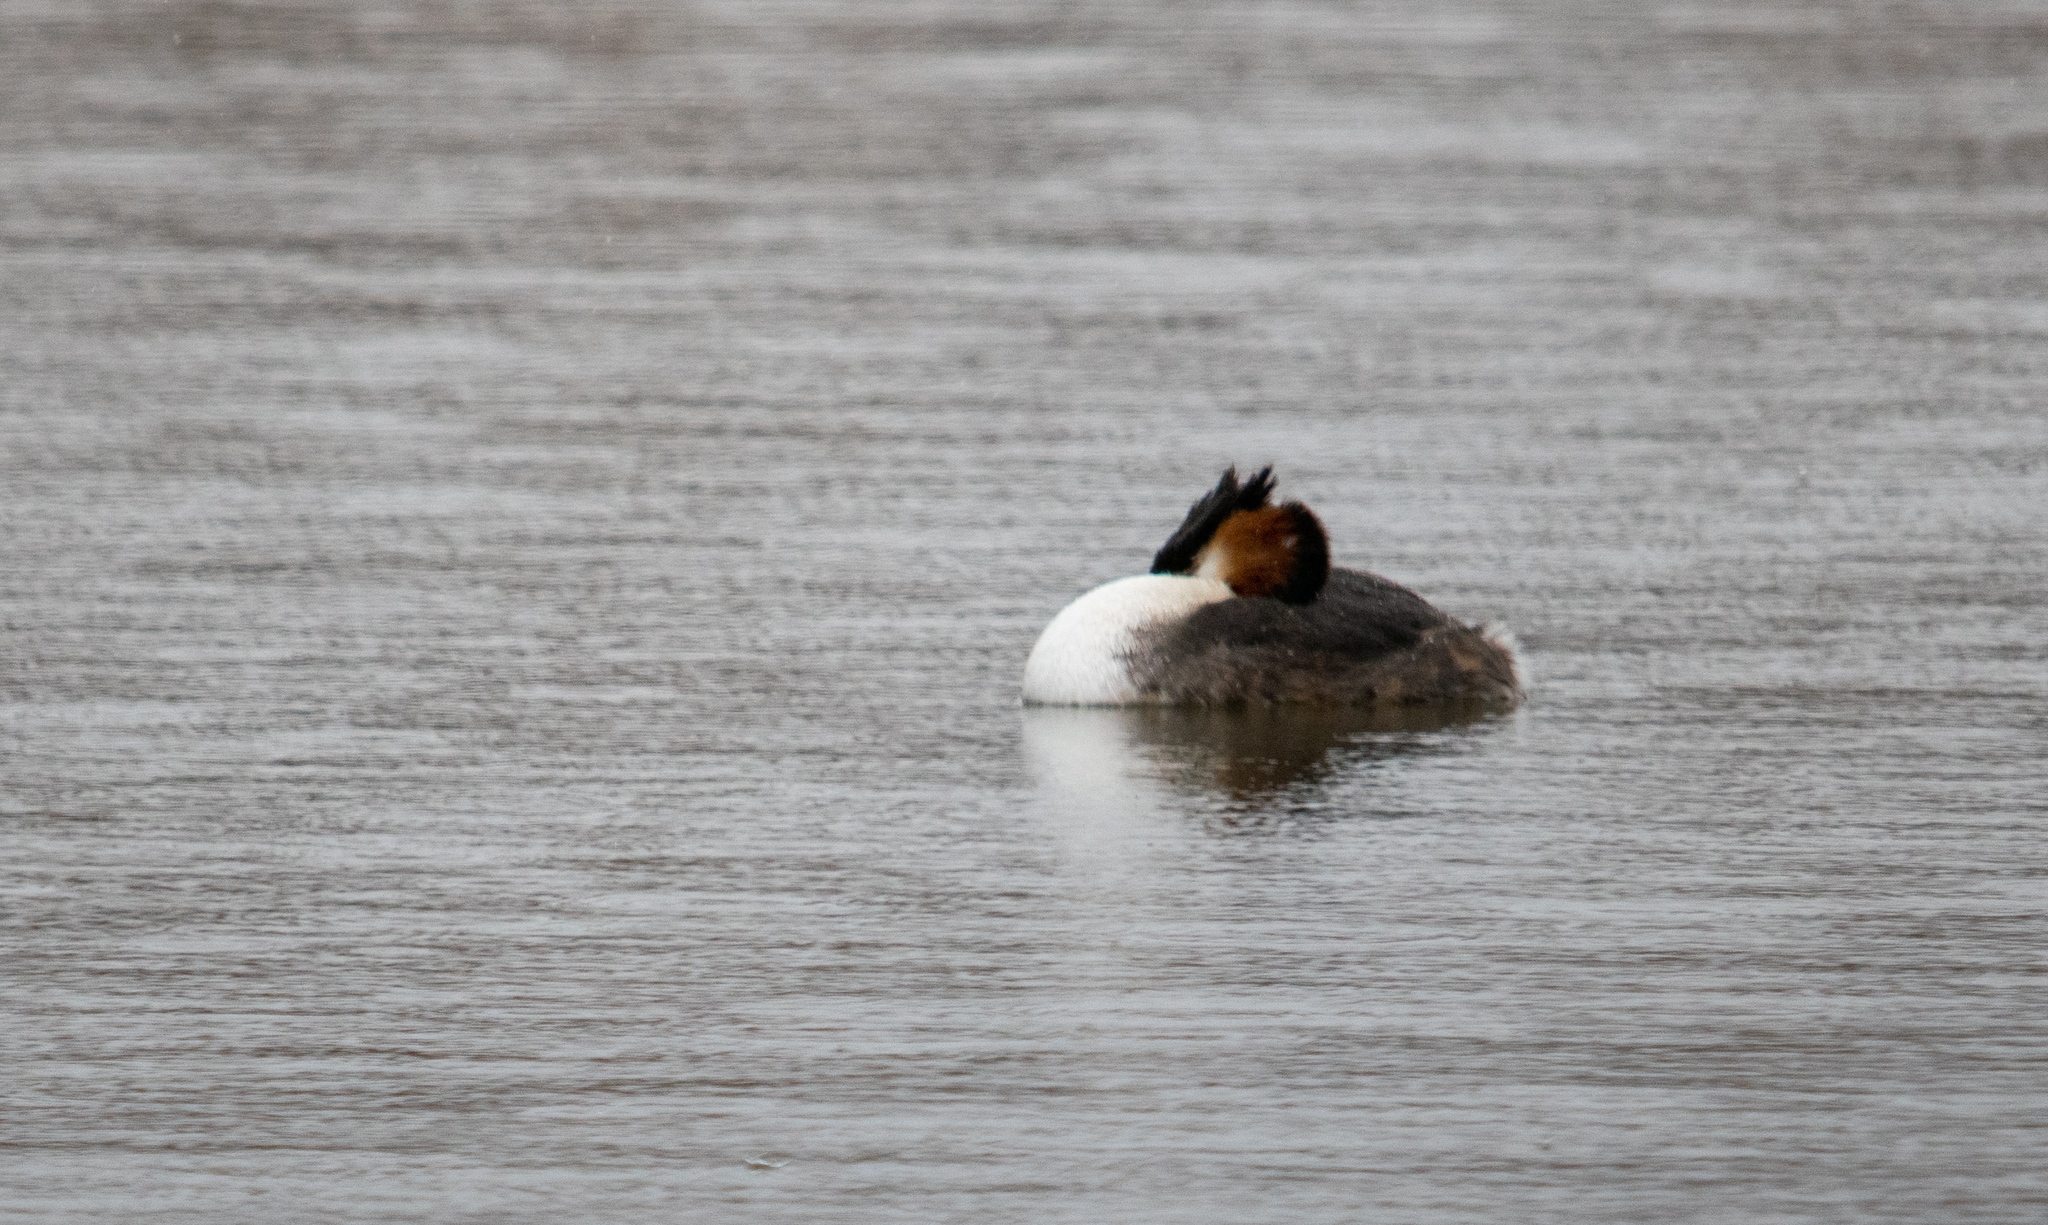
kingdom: Animalia
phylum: Chordata
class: Aves
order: Podicipediformes
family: Podicipedidae
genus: Podiceps
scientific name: Podiceps cristatus
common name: Great crested grebe
